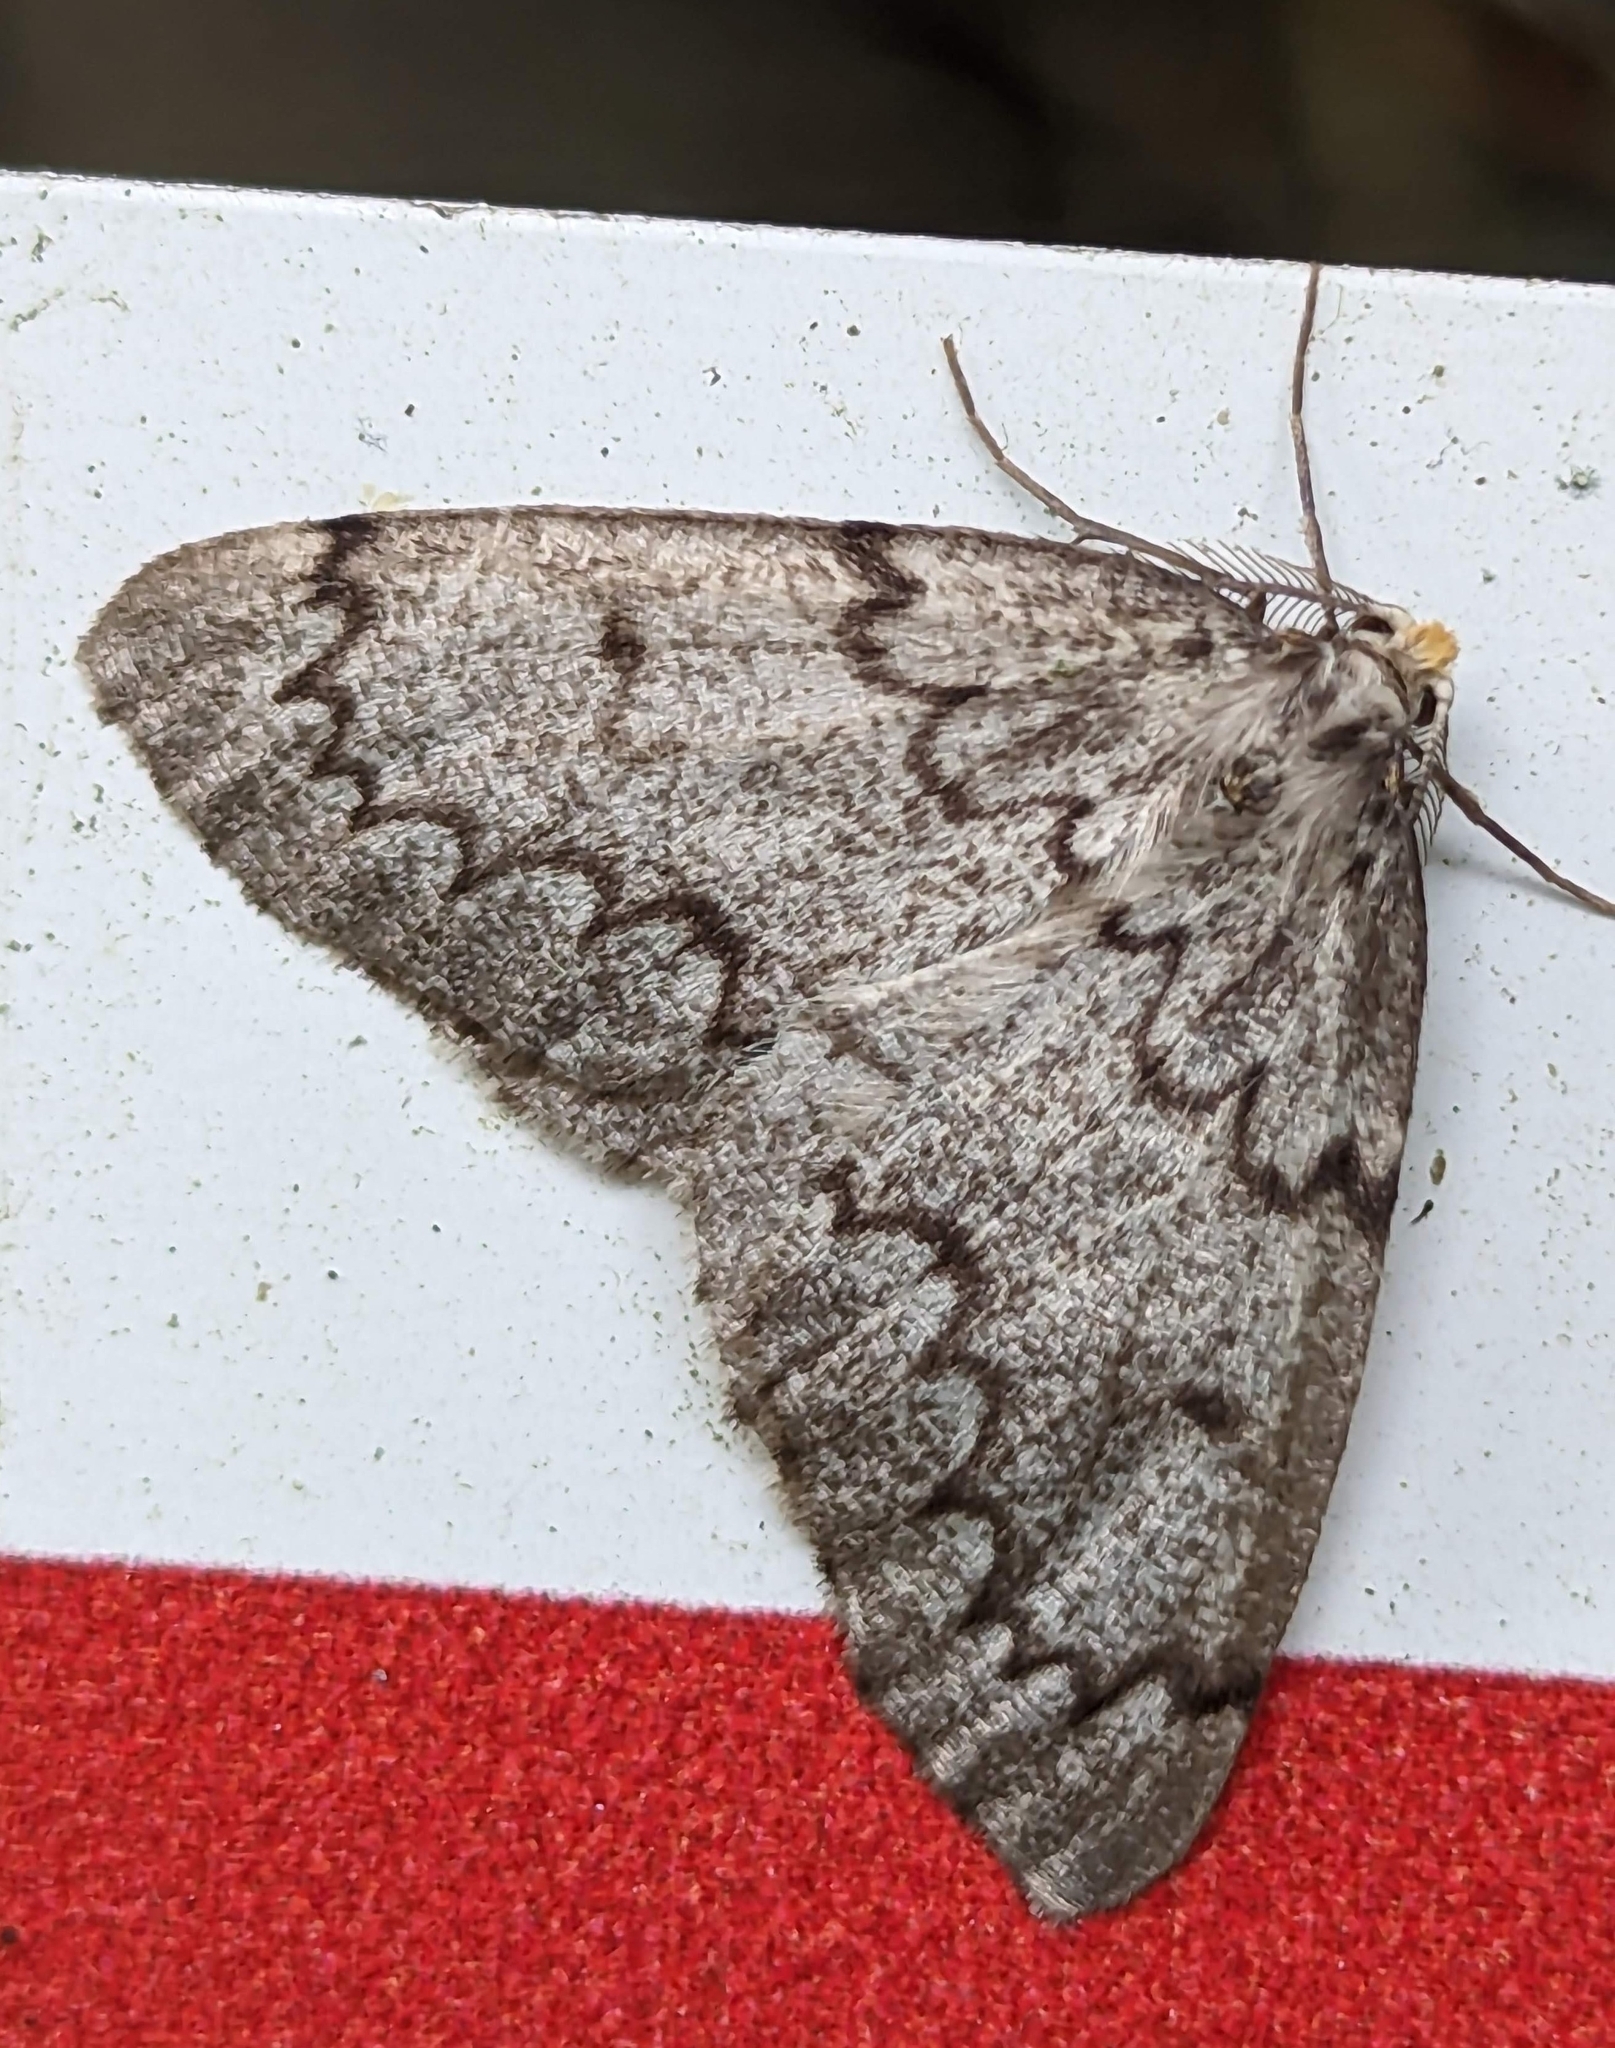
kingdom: Animalia
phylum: Arthropoda
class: Insecta
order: Lepidoptera
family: Geometridae
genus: Nepytia
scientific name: Nepytia canosaria
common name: False hemlock looper
